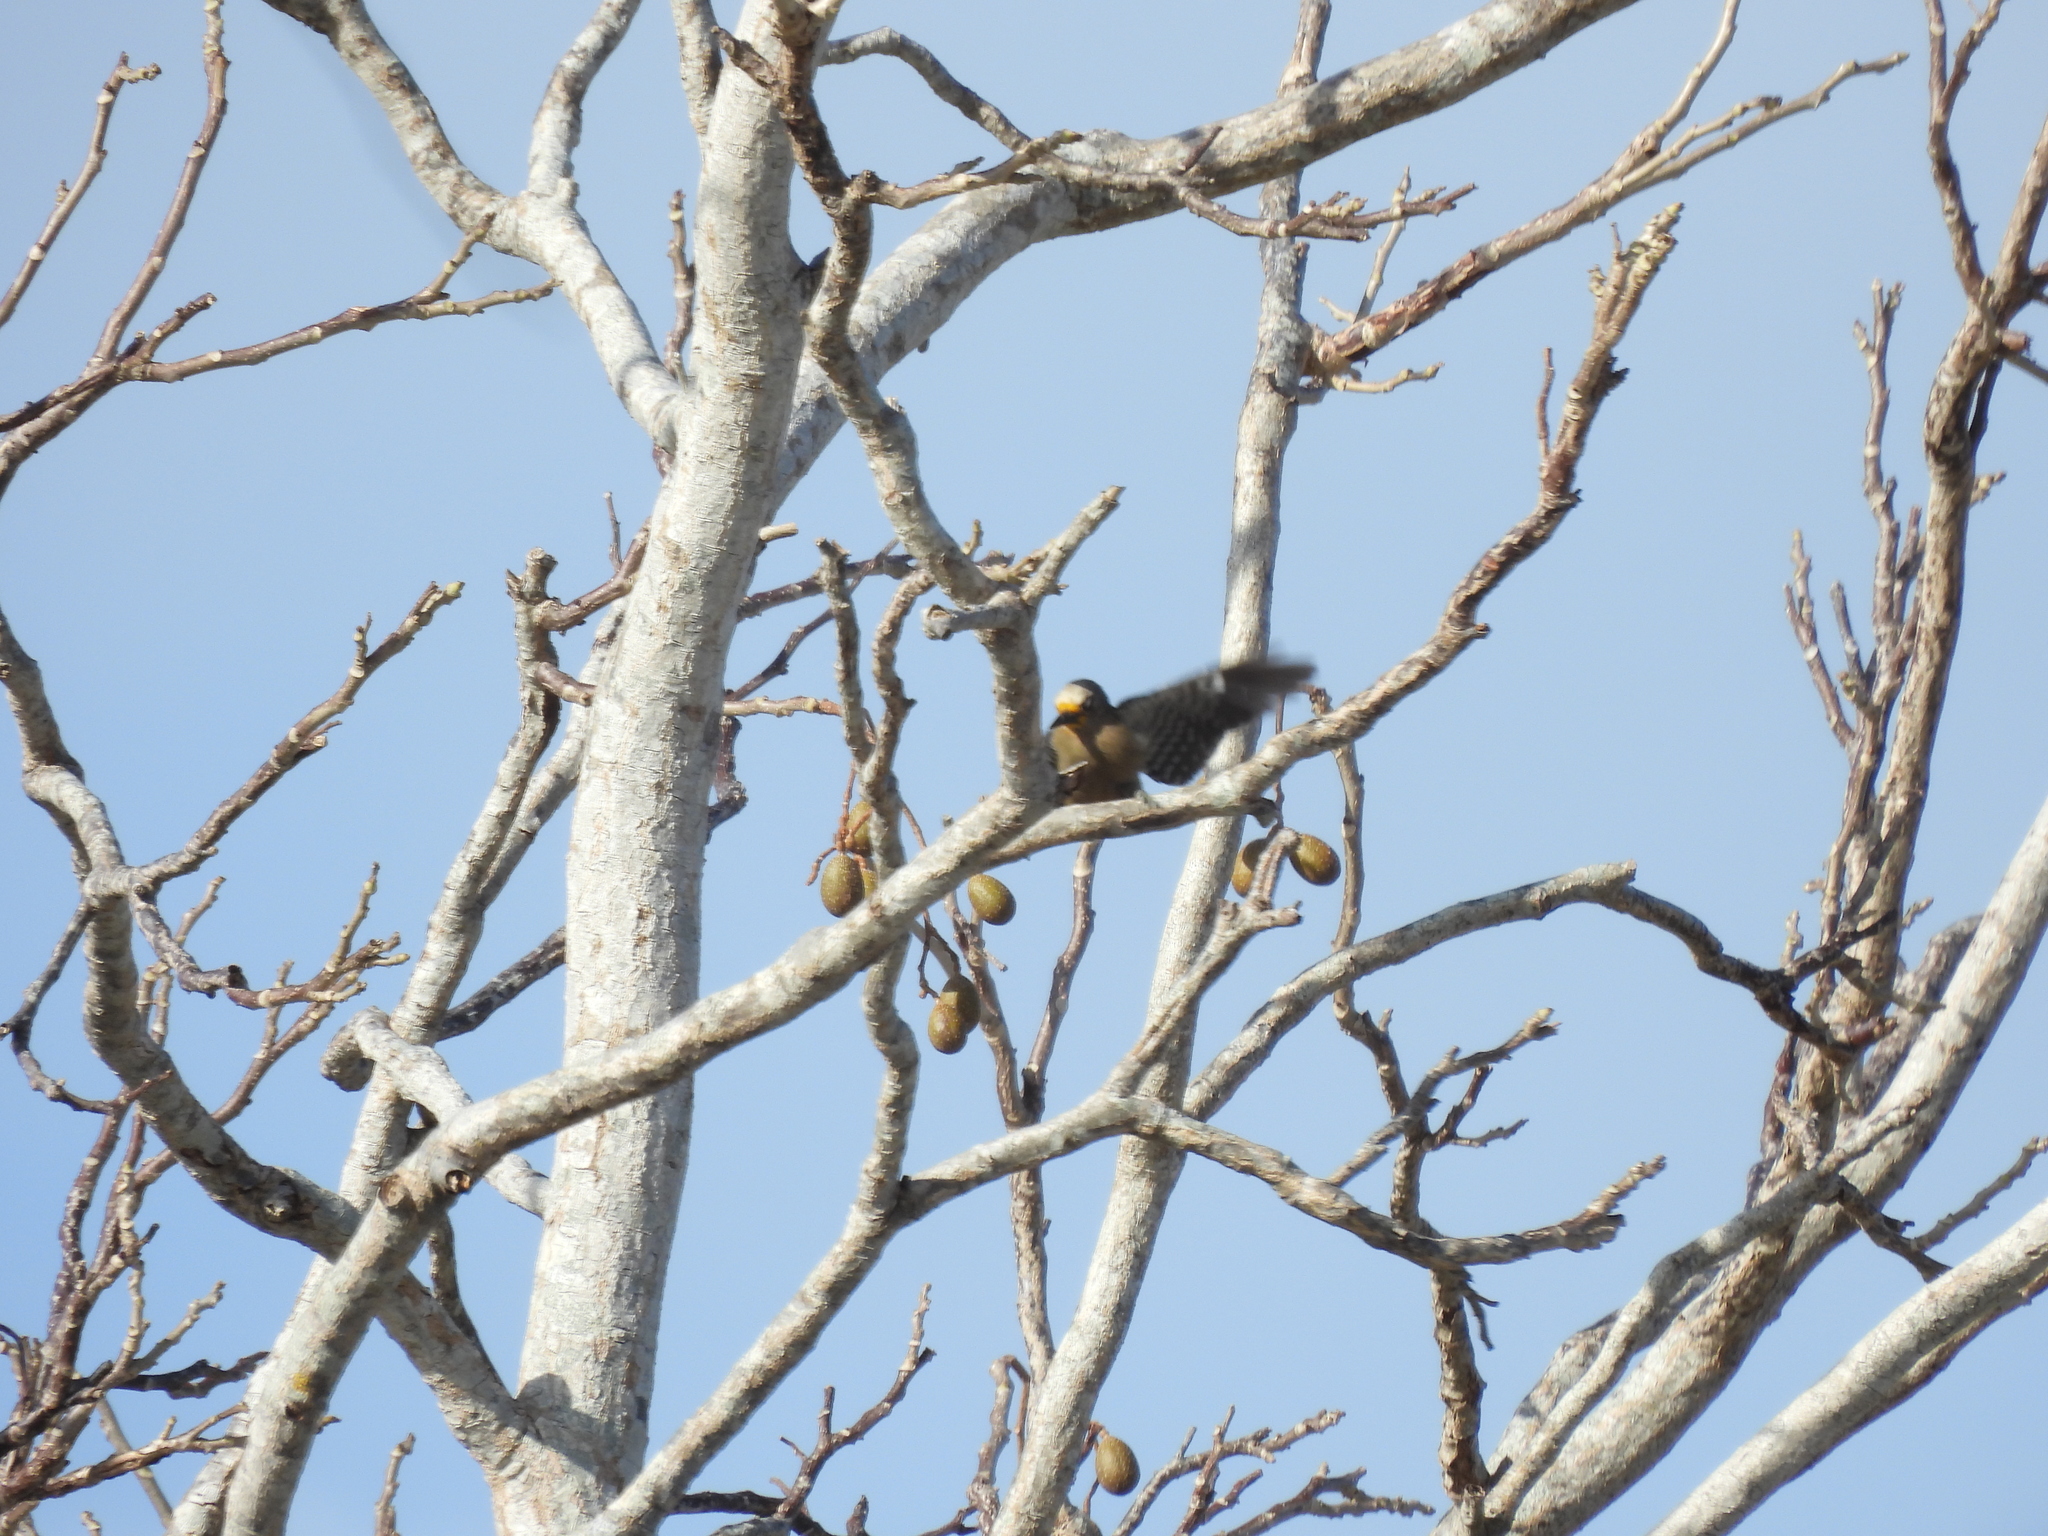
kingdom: Animalia
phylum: Chordata
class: Aves
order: Piciformes
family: Picidae
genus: Melanerpes
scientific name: Melanerpes pygmaeus
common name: Yucatan woodpecker
